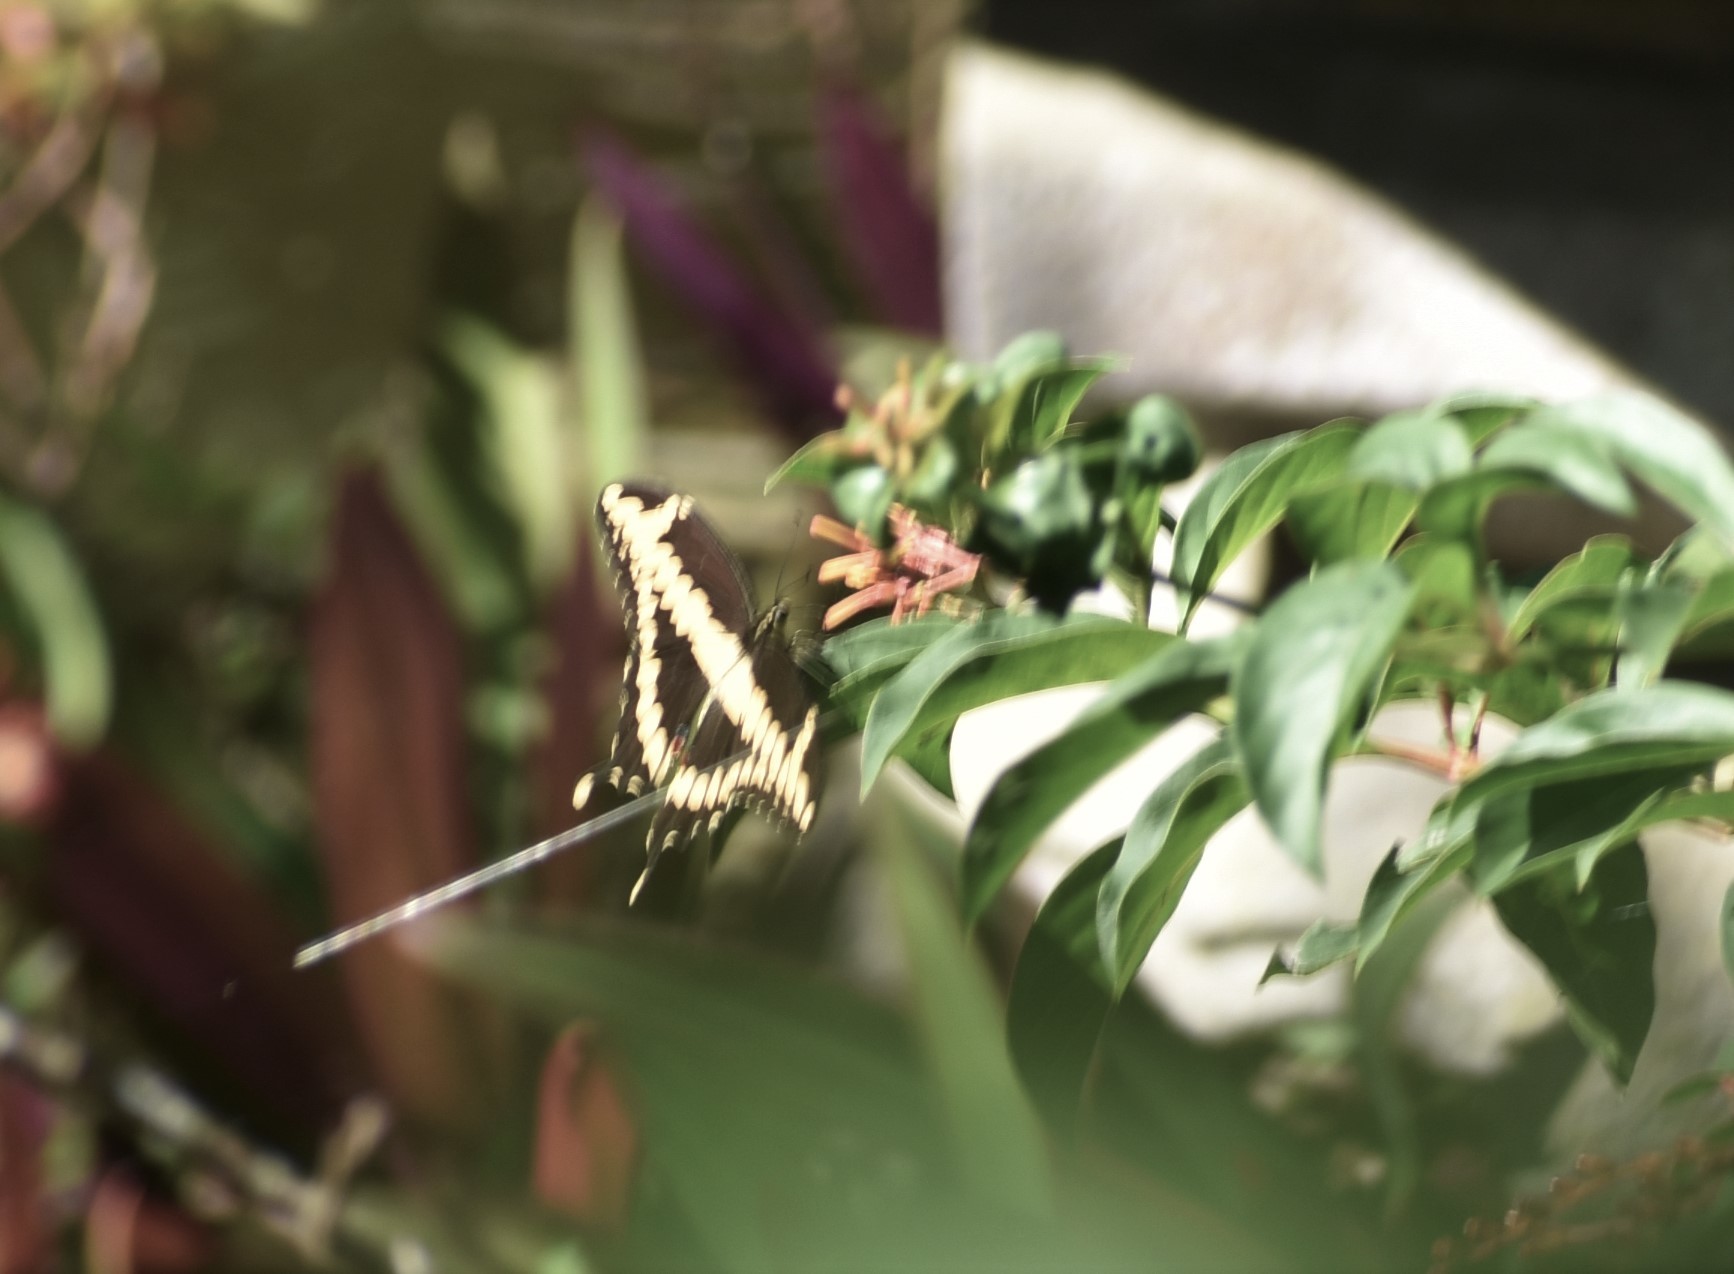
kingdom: Animalia
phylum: Arthropoda
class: Insecta
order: Lepidoptera
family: Papilionidae
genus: Papilio
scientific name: Papilio cresphontes
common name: Giant swallowtail
